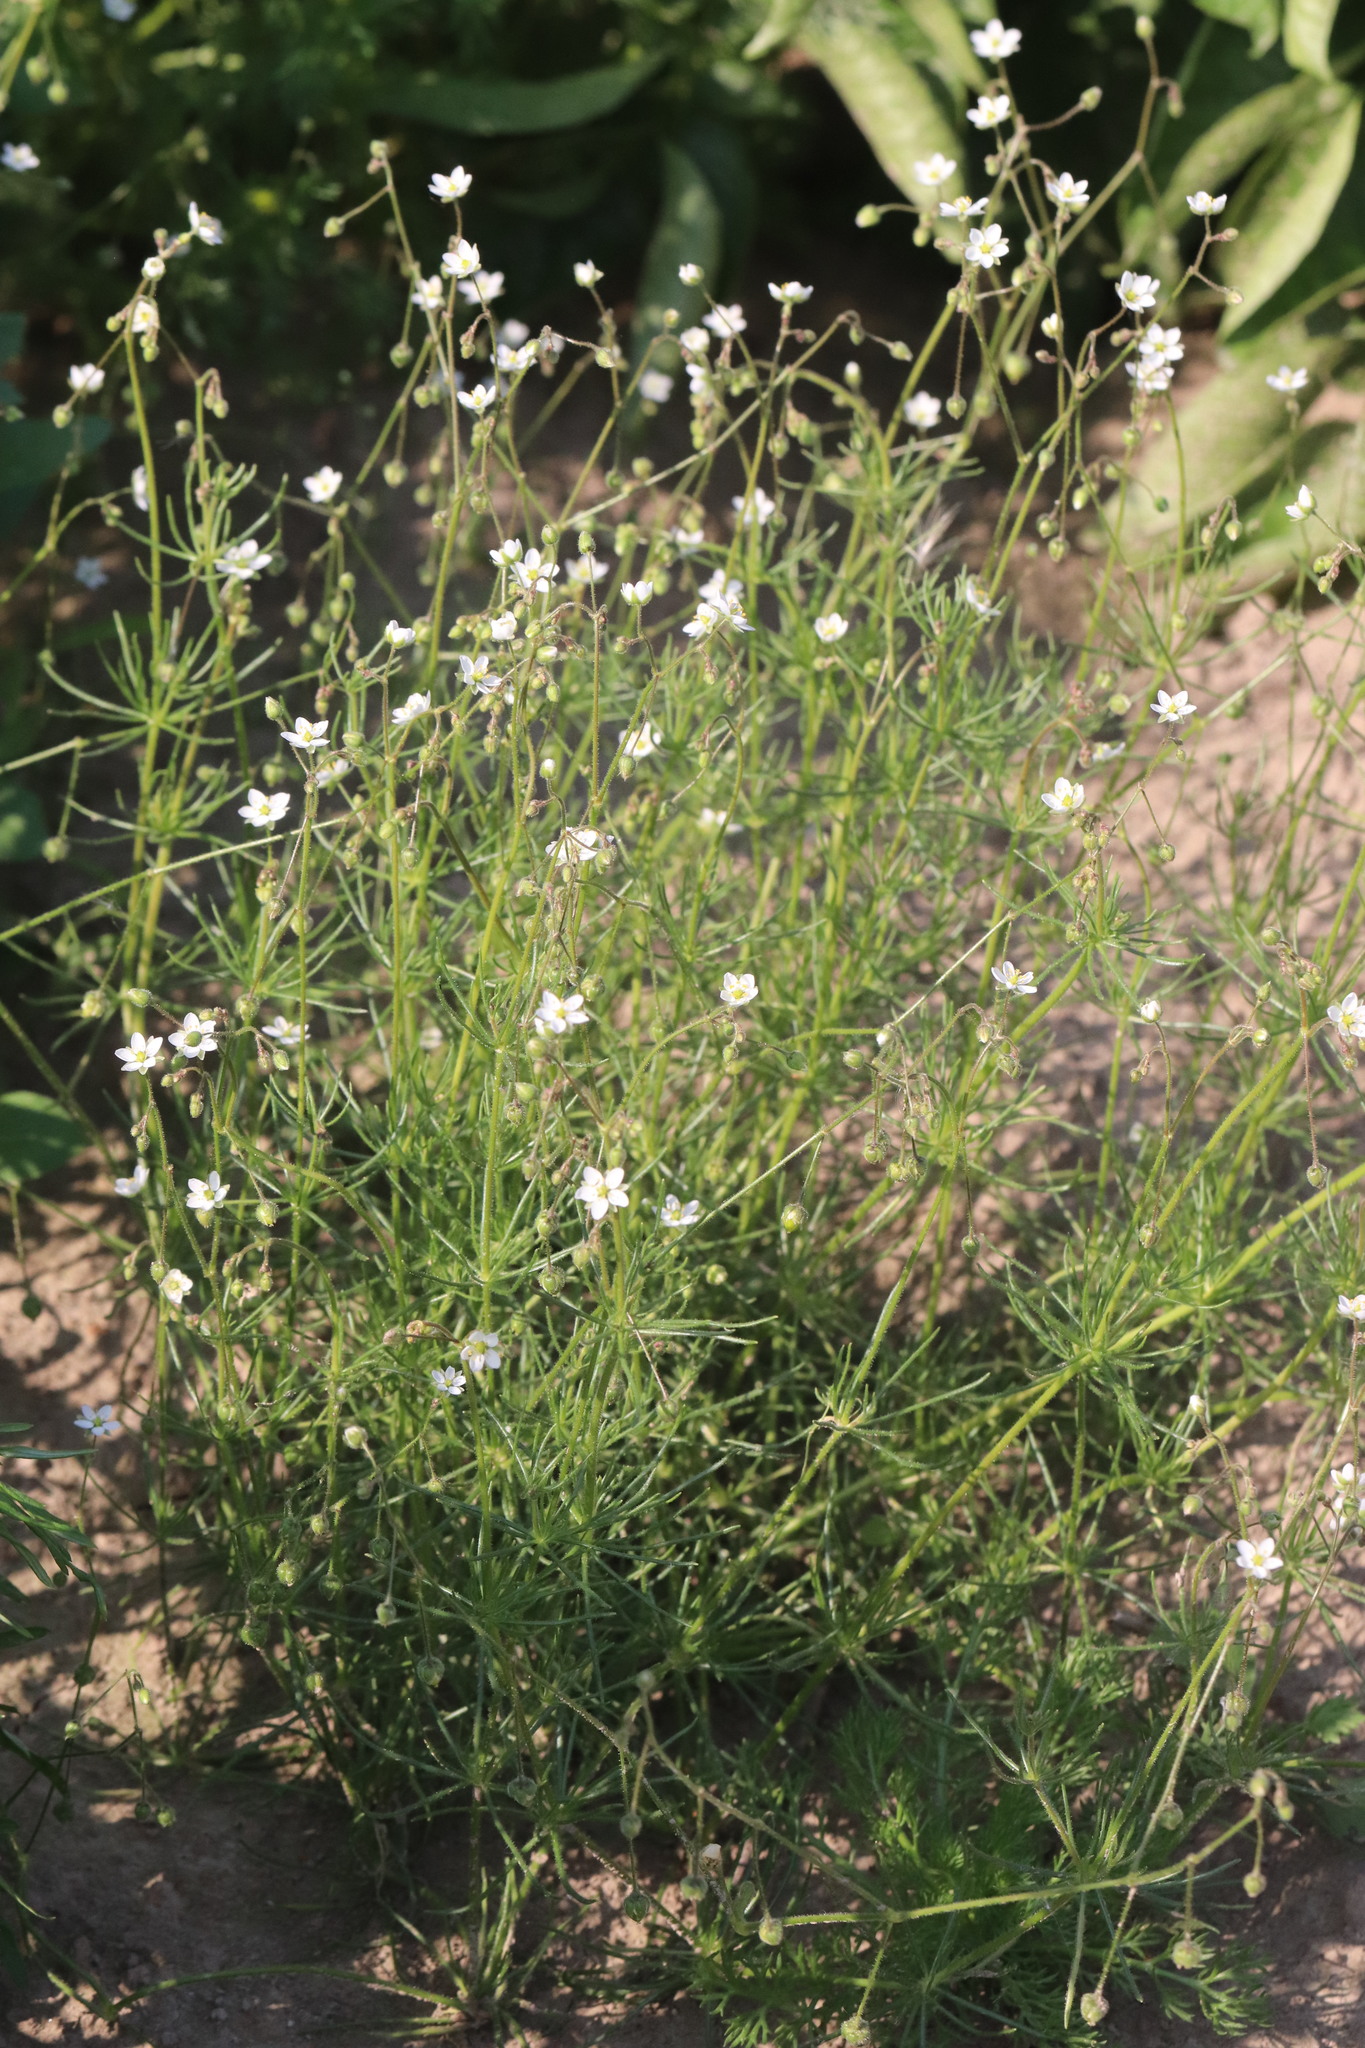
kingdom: Plantae
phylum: Tracheophyta
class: Magnoliopsida
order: Caryophyllales
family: Caryophyllaceae
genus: Spergula
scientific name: Spergula arvensis
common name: Corn spurrey
